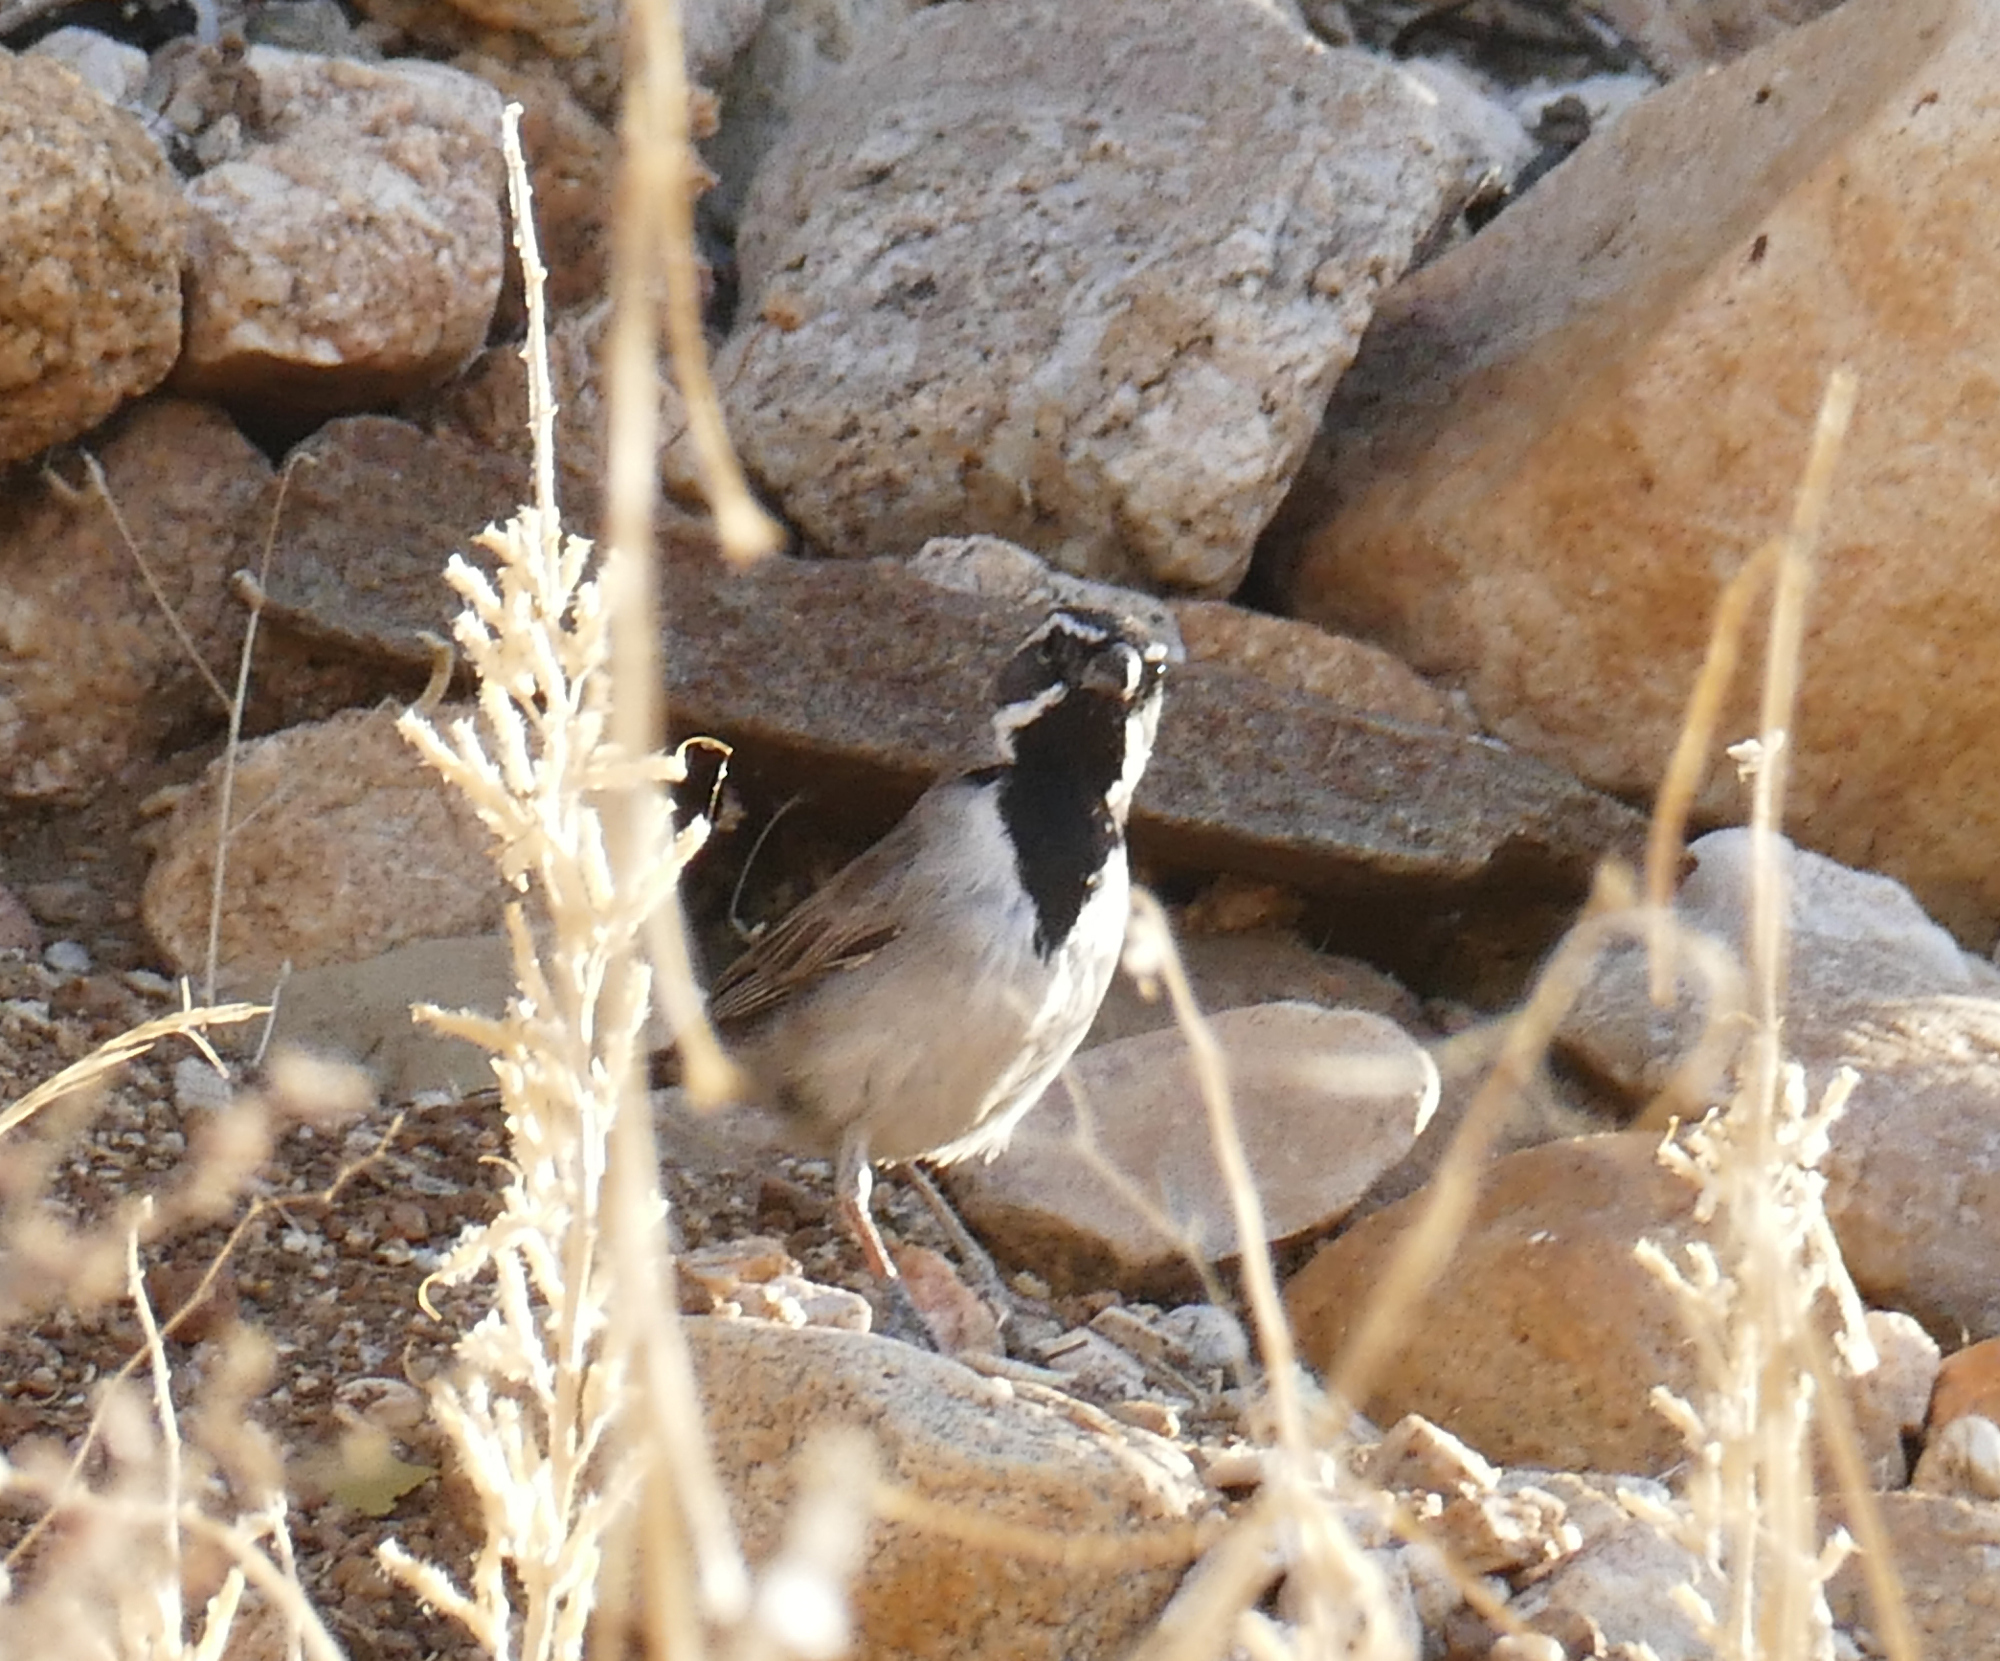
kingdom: Animalia
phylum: Chordata
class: Aves
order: Passeriformes
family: Passerellidae
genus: Amphispiza
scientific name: Amphispiza bilineata
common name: Black-throated sparrow
